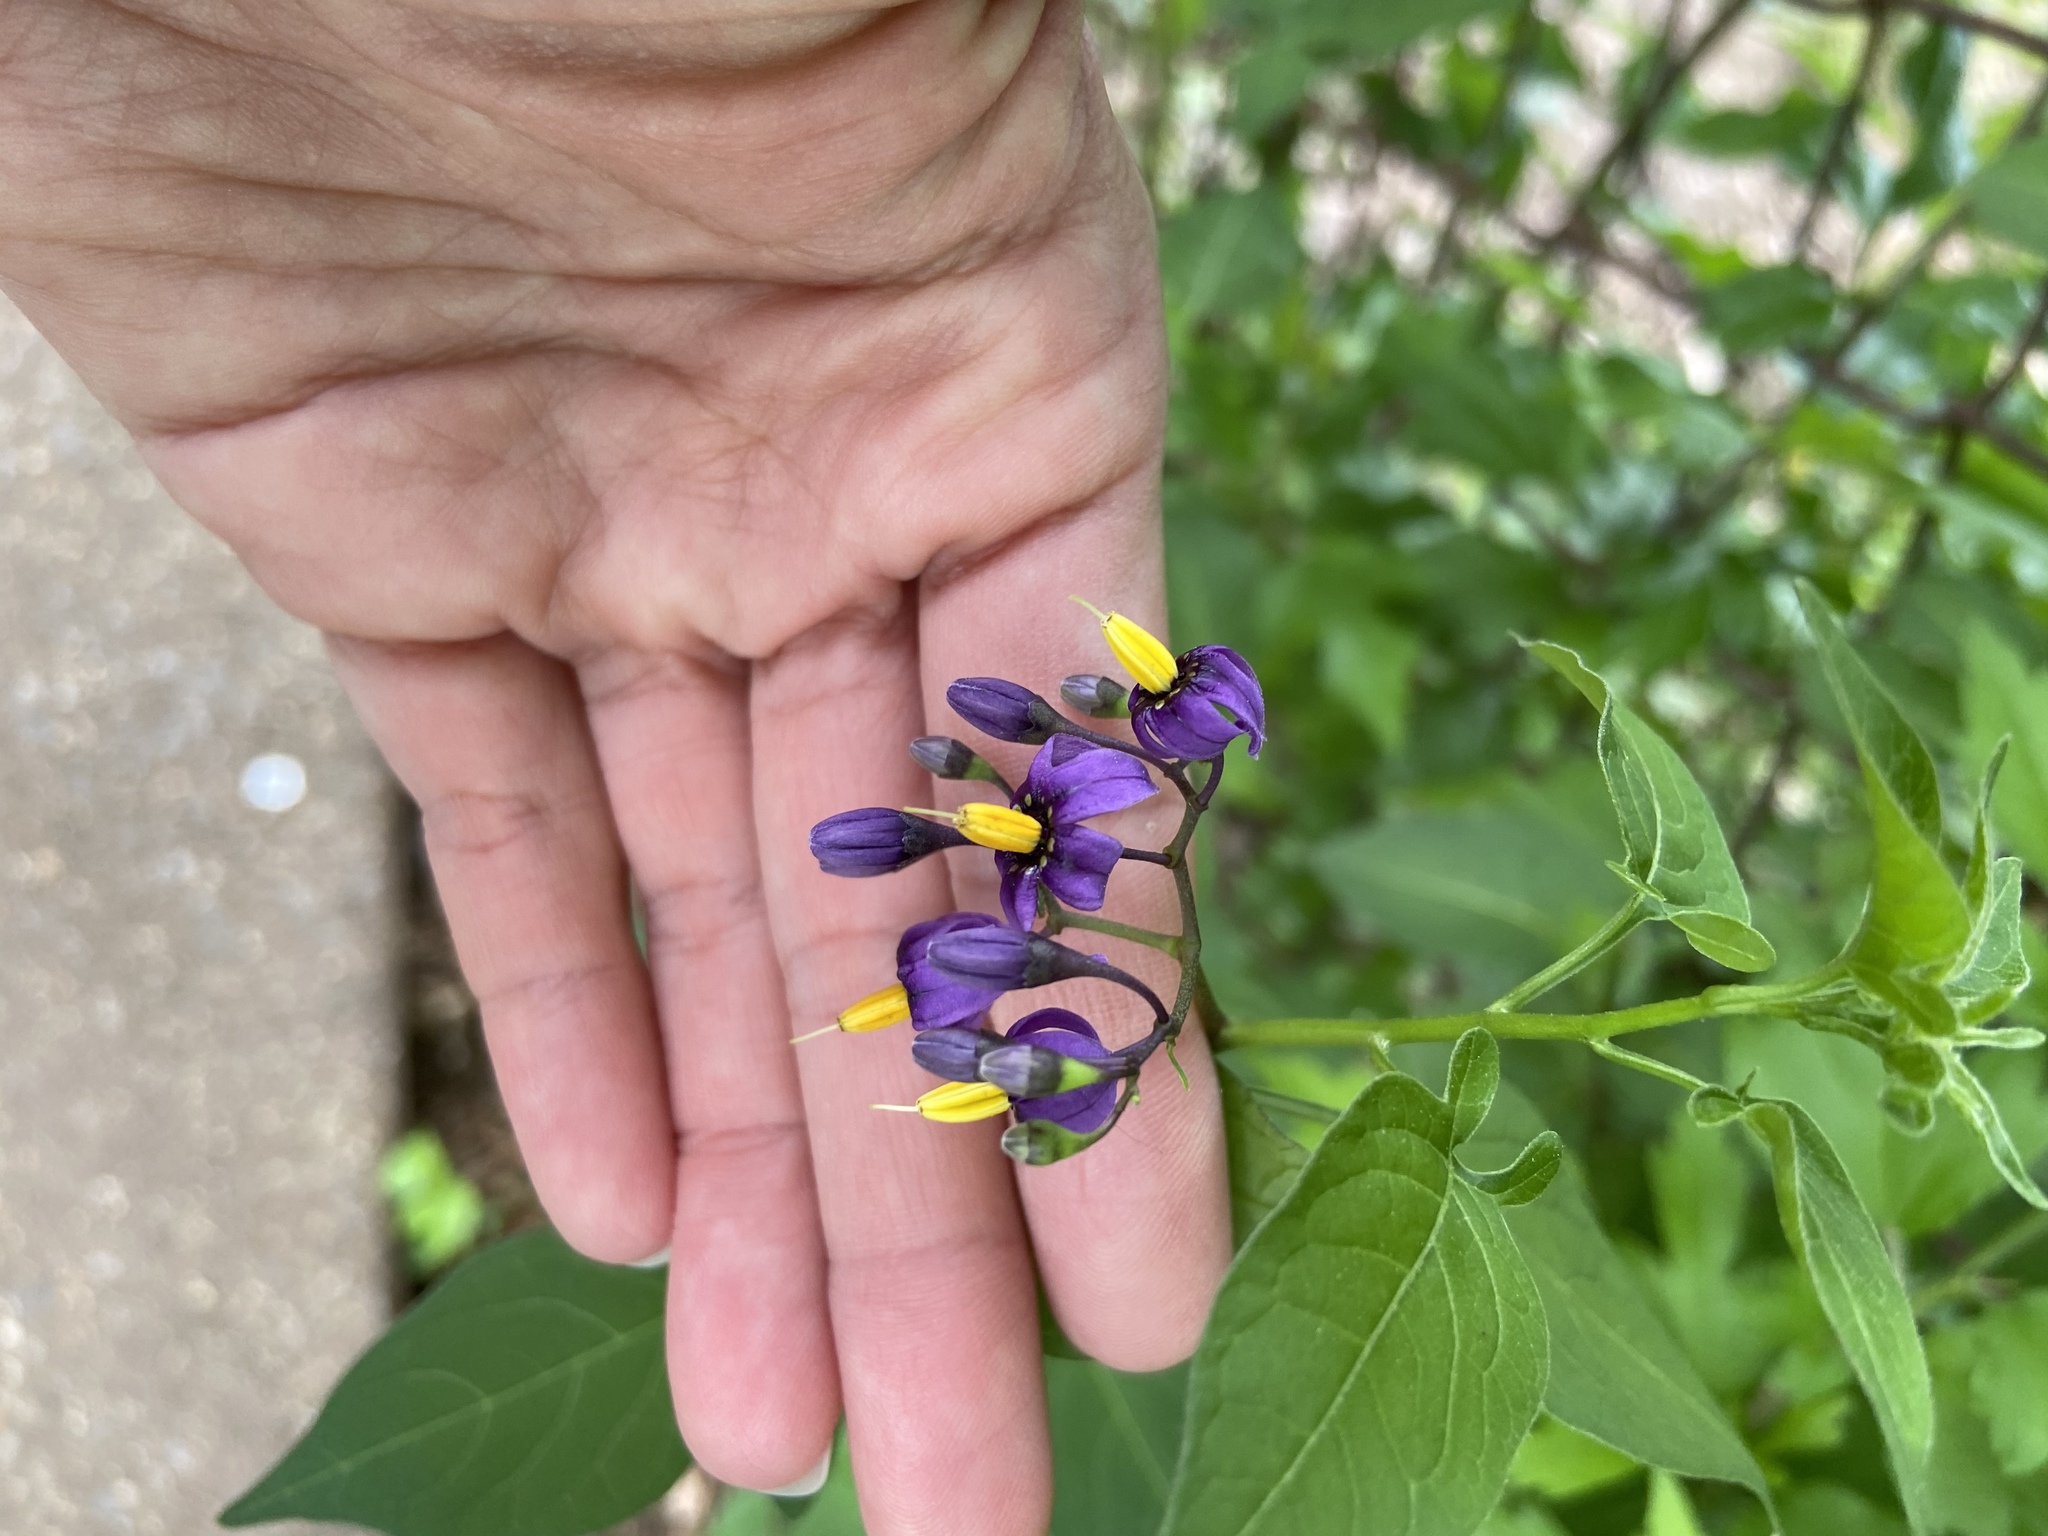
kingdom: Plantae
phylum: Tracheophyta
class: Magnoliopsida
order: Solanales
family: Solanaceae
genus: Solanum
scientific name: Solanum dulcamara
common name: Climbing nightshade
